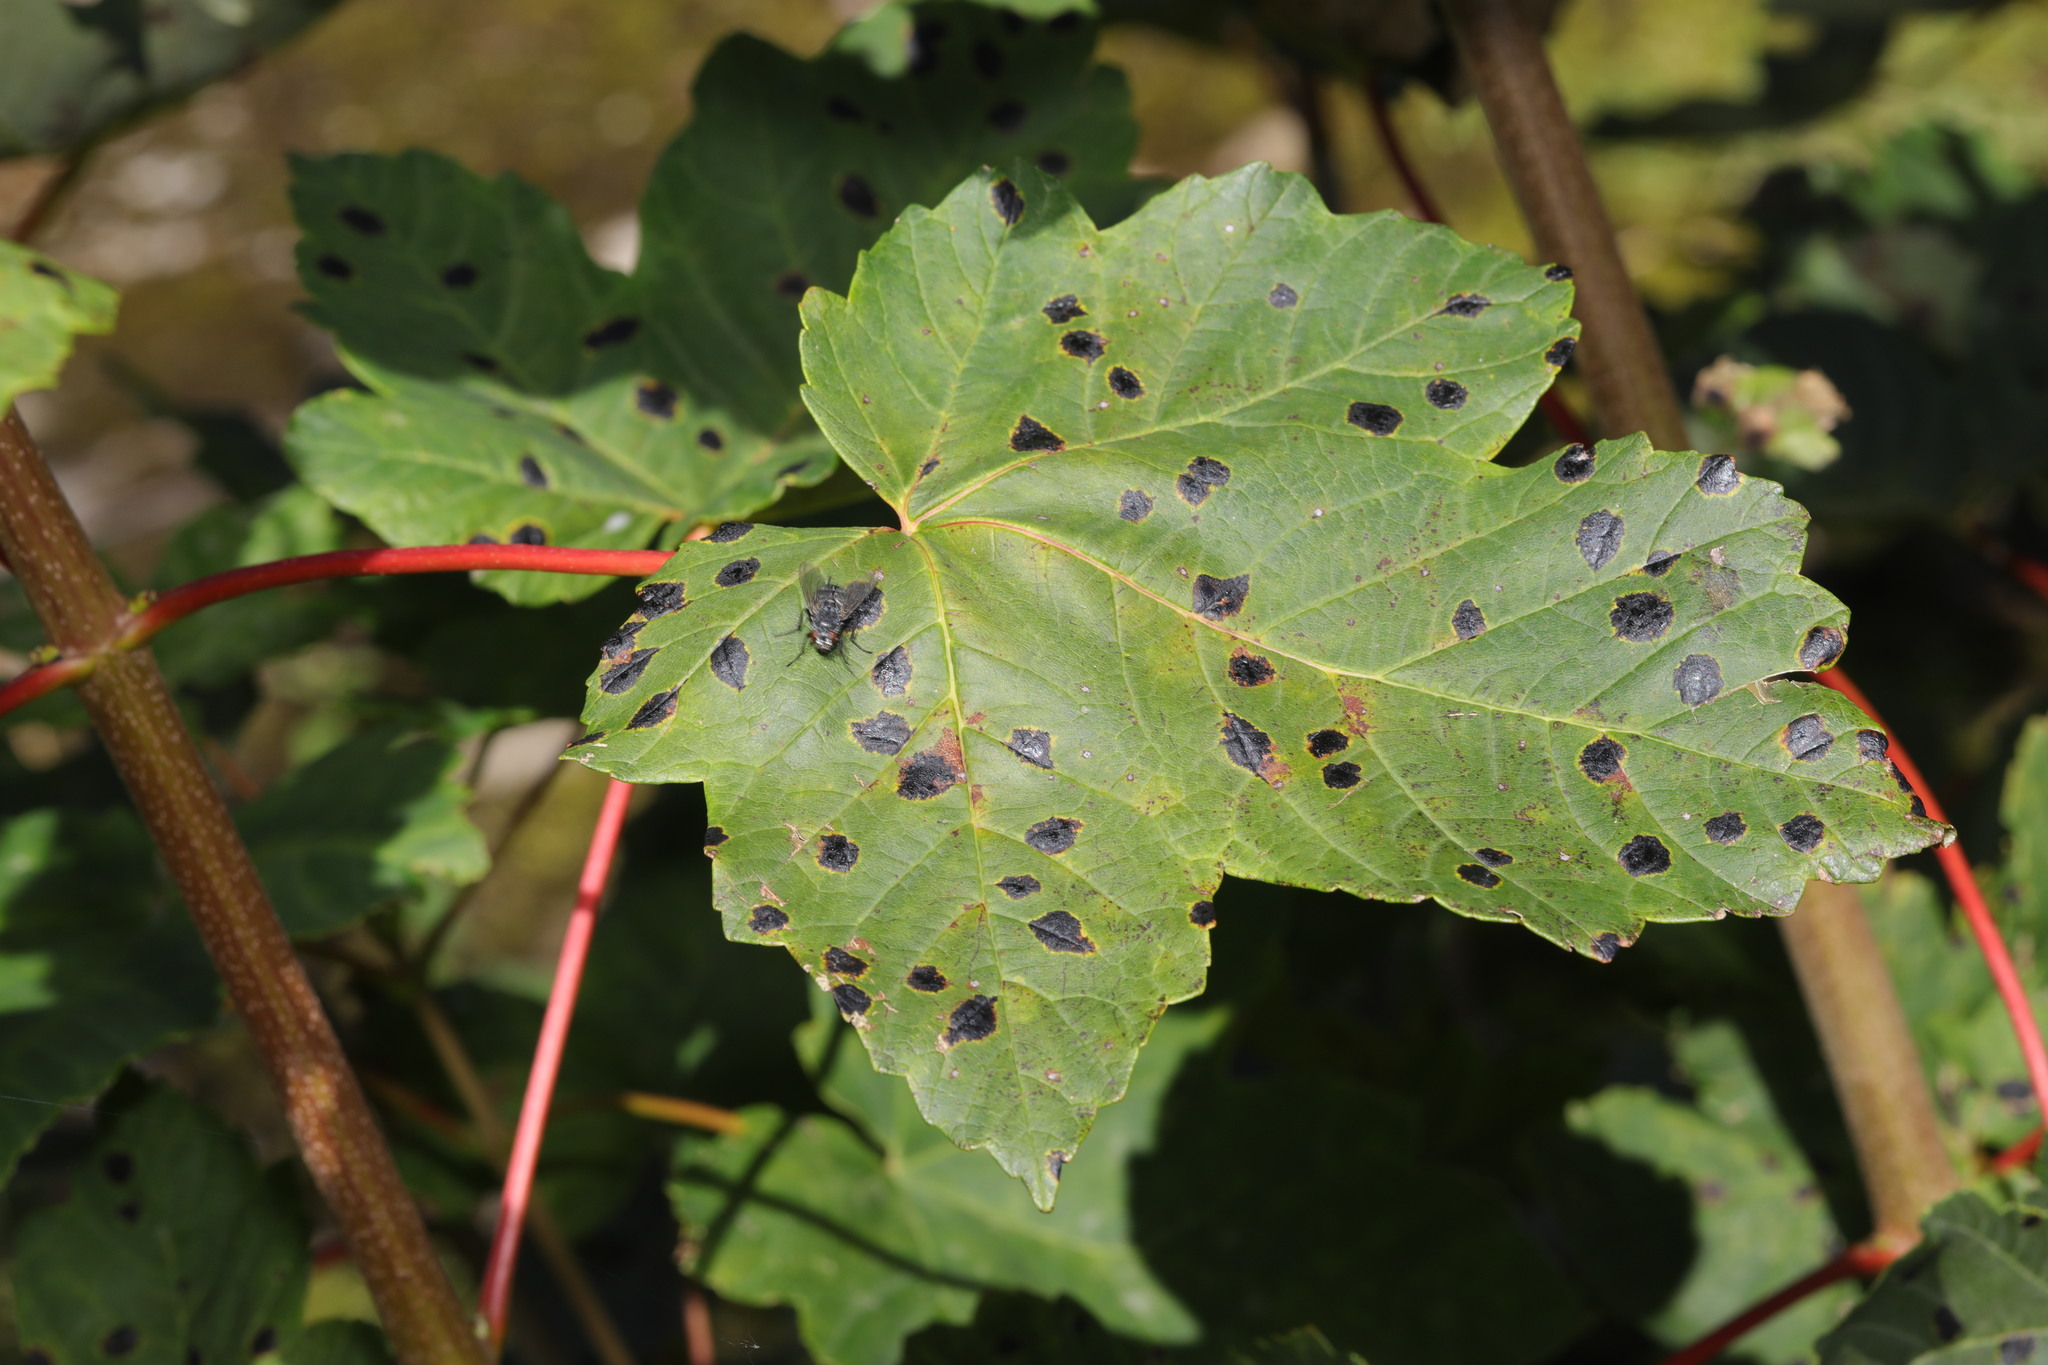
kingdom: Fungi
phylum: Ascomycota
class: Leotiomycetes
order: Rhytismatales
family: Rhytismataceae
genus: Rhytisma
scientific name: Rhytisma acerinum
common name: European tar spot
